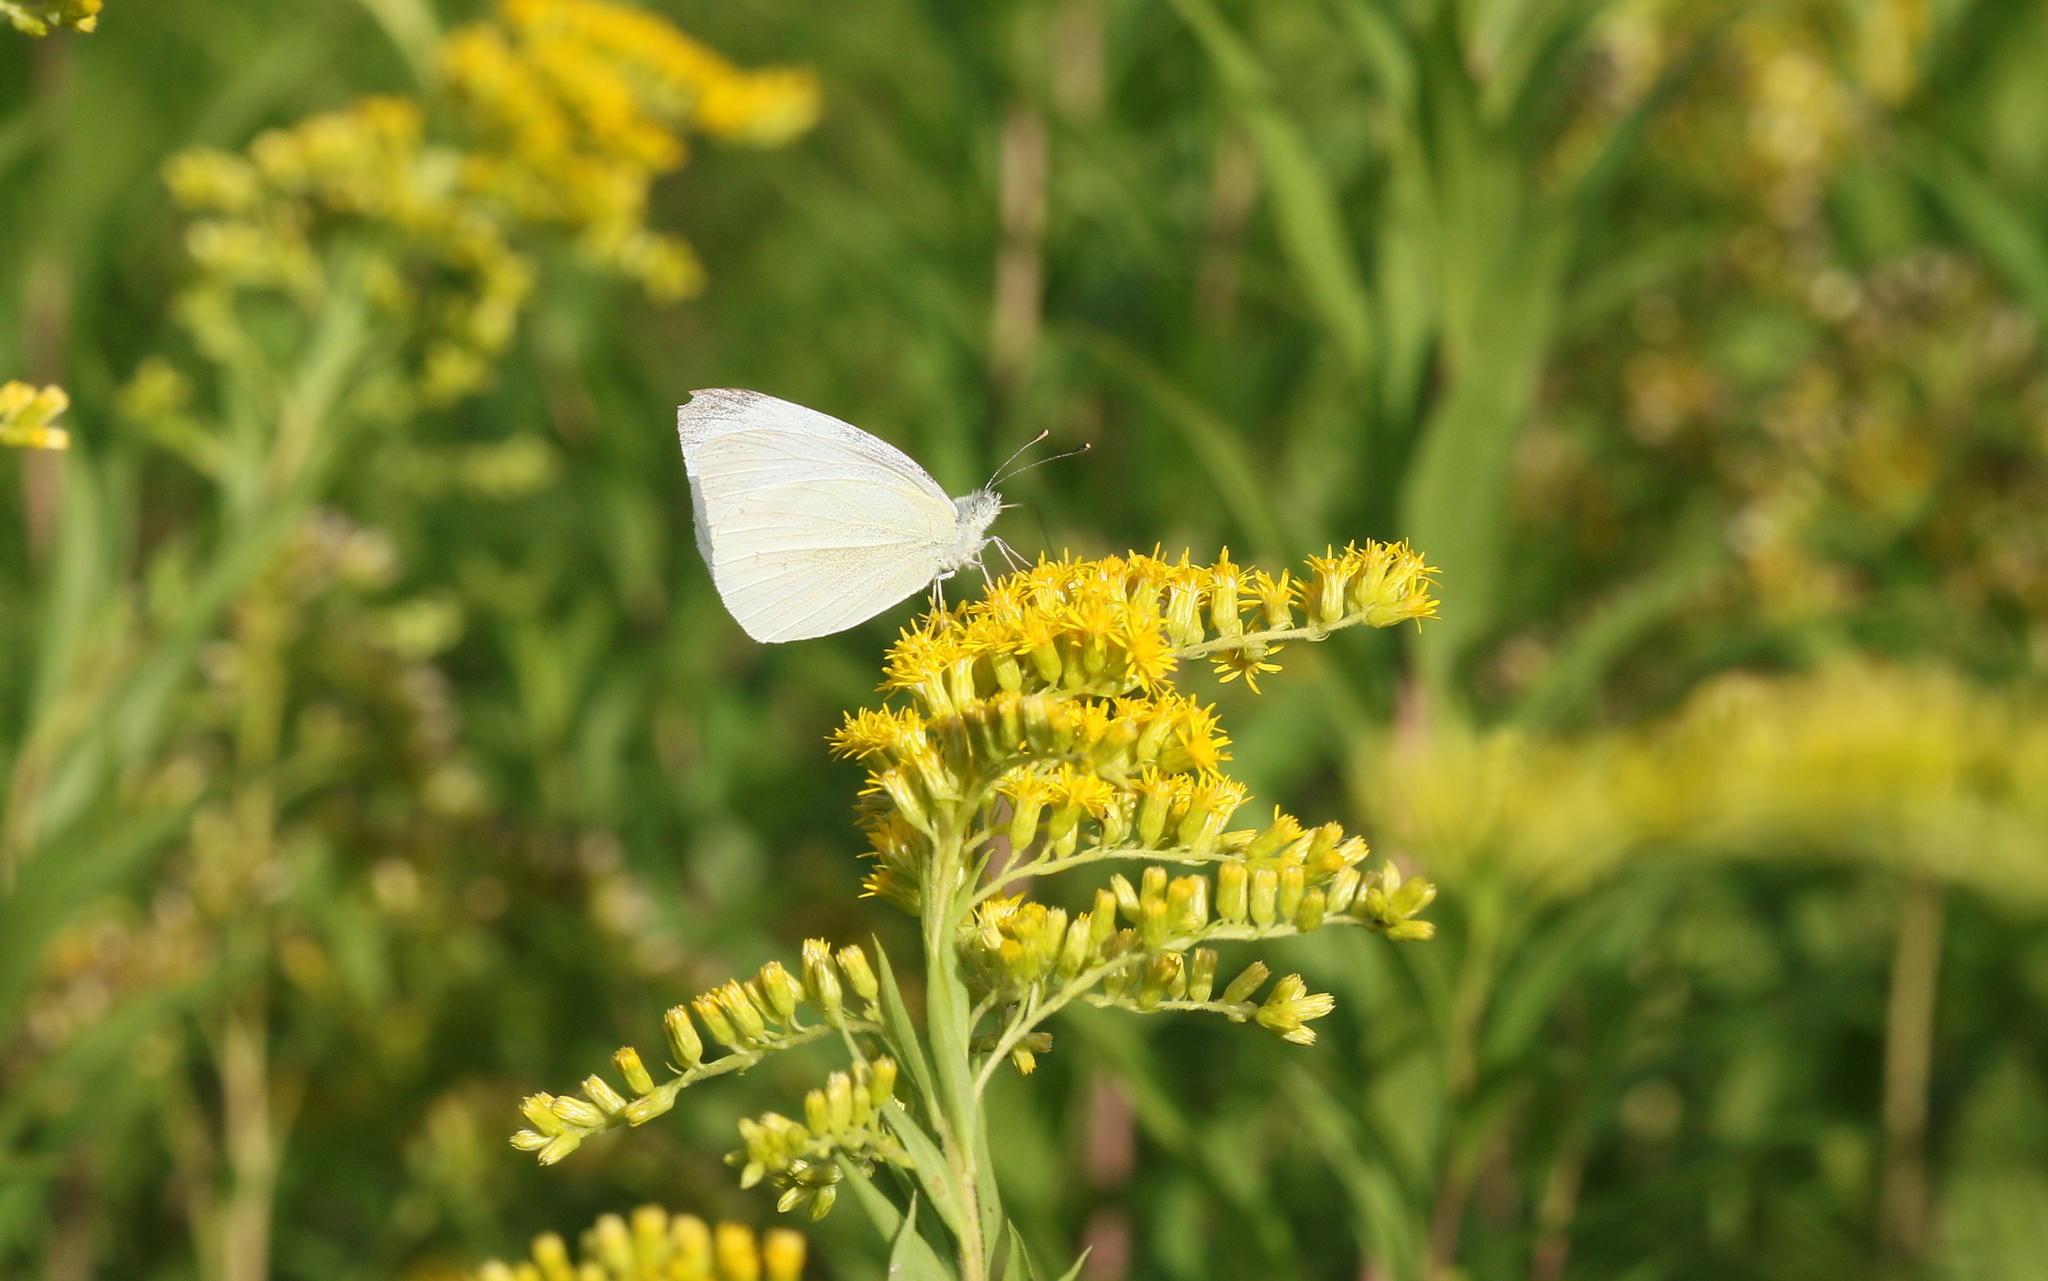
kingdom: Animalia
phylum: Arthropoda
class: Insecta
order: Lepidoptera
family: Pieridae
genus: Pieris
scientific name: Pieris rapae
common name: Small white
